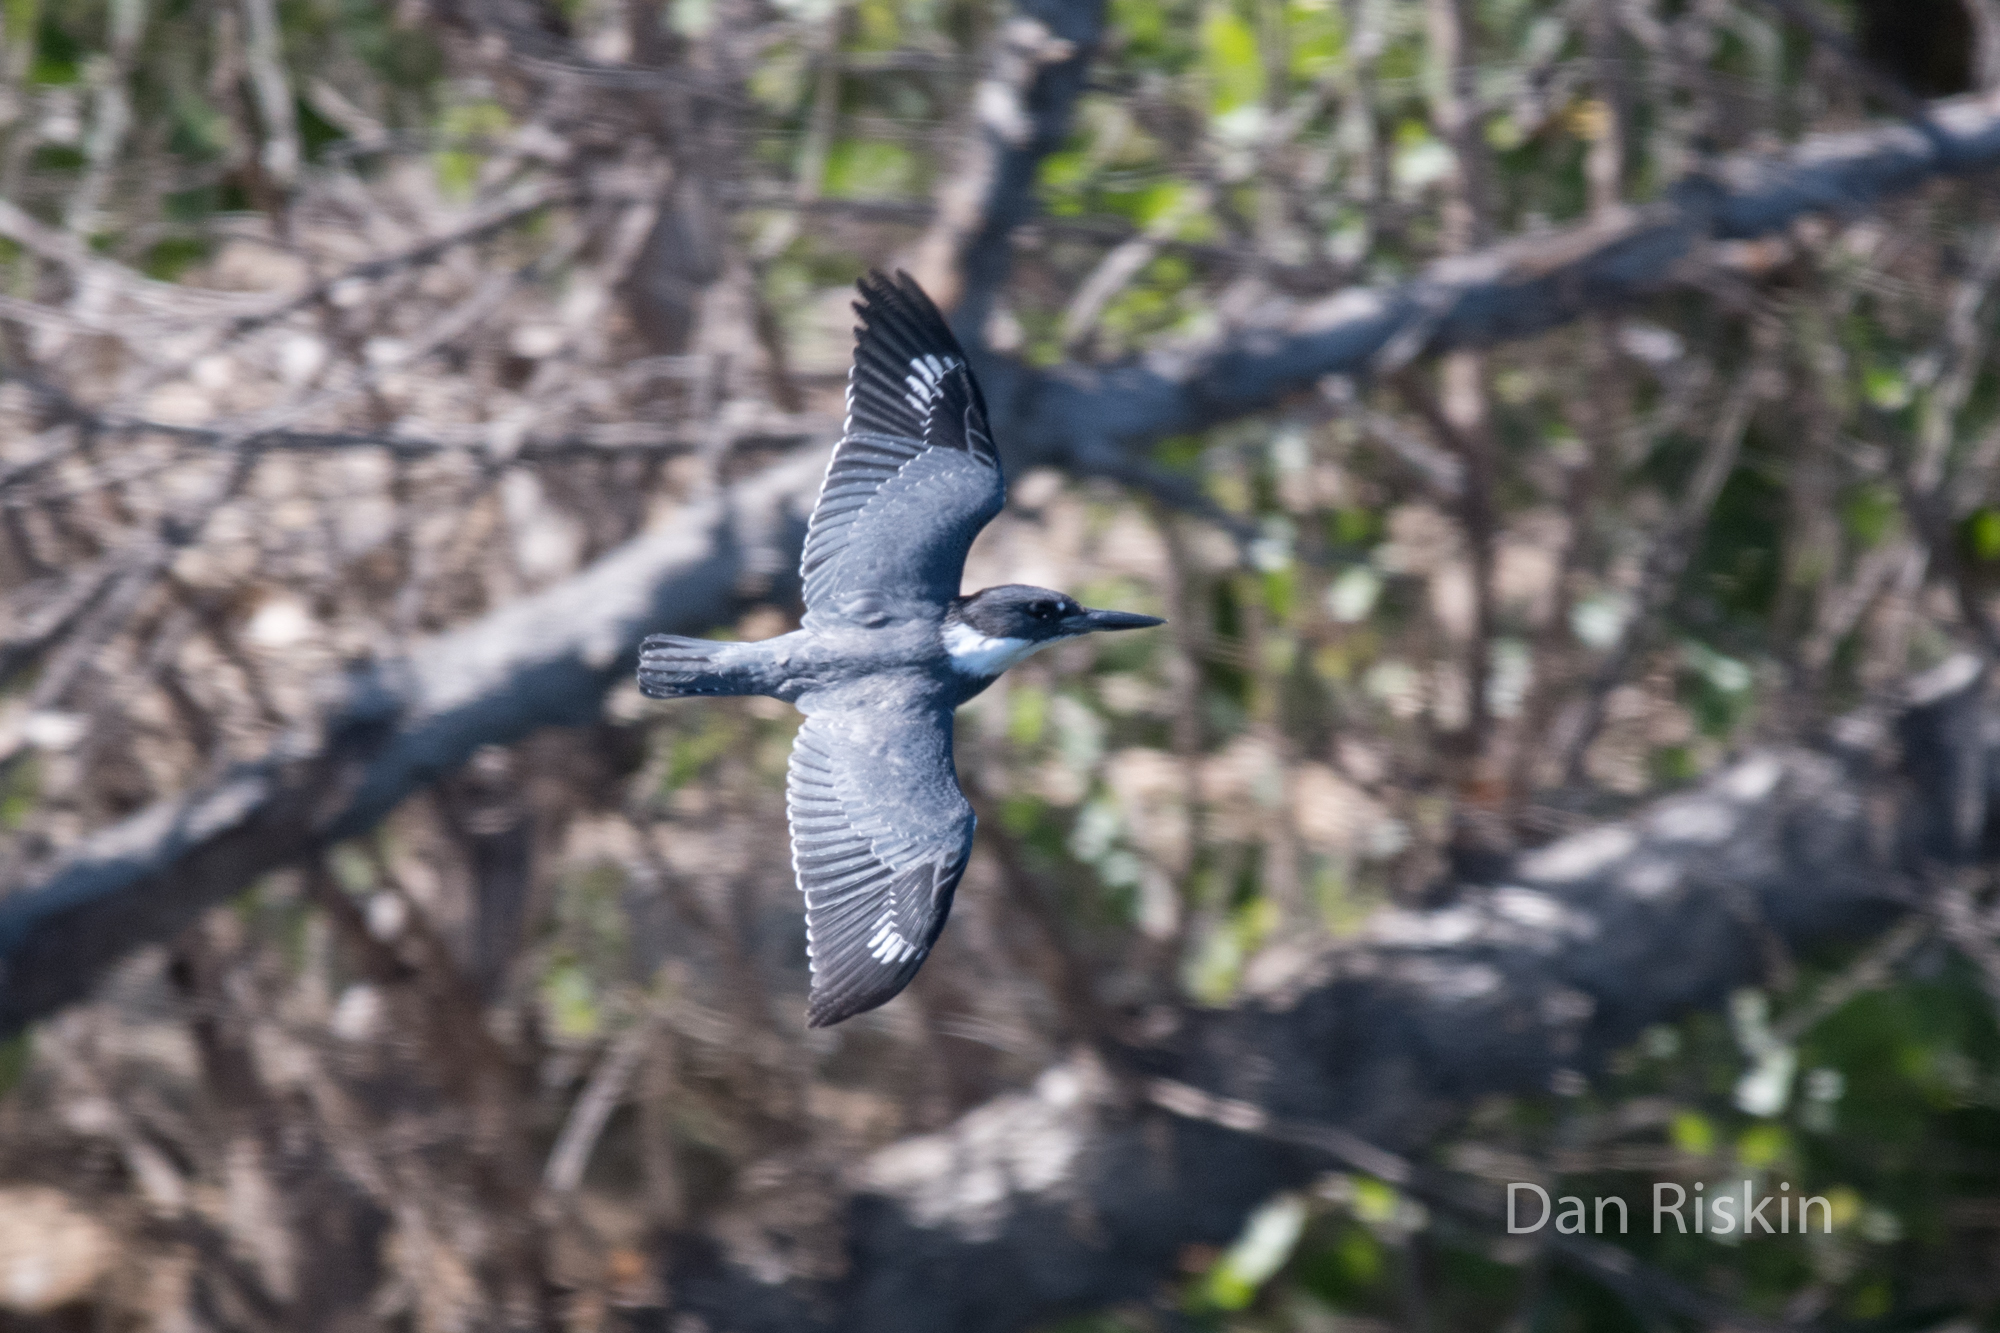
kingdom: Animalia
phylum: Chordata
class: Aves
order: Coraciiformes
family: Alcedinidae
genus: Megaceryle
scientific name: Megaceryle alcyon
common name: Belted kingfisher
